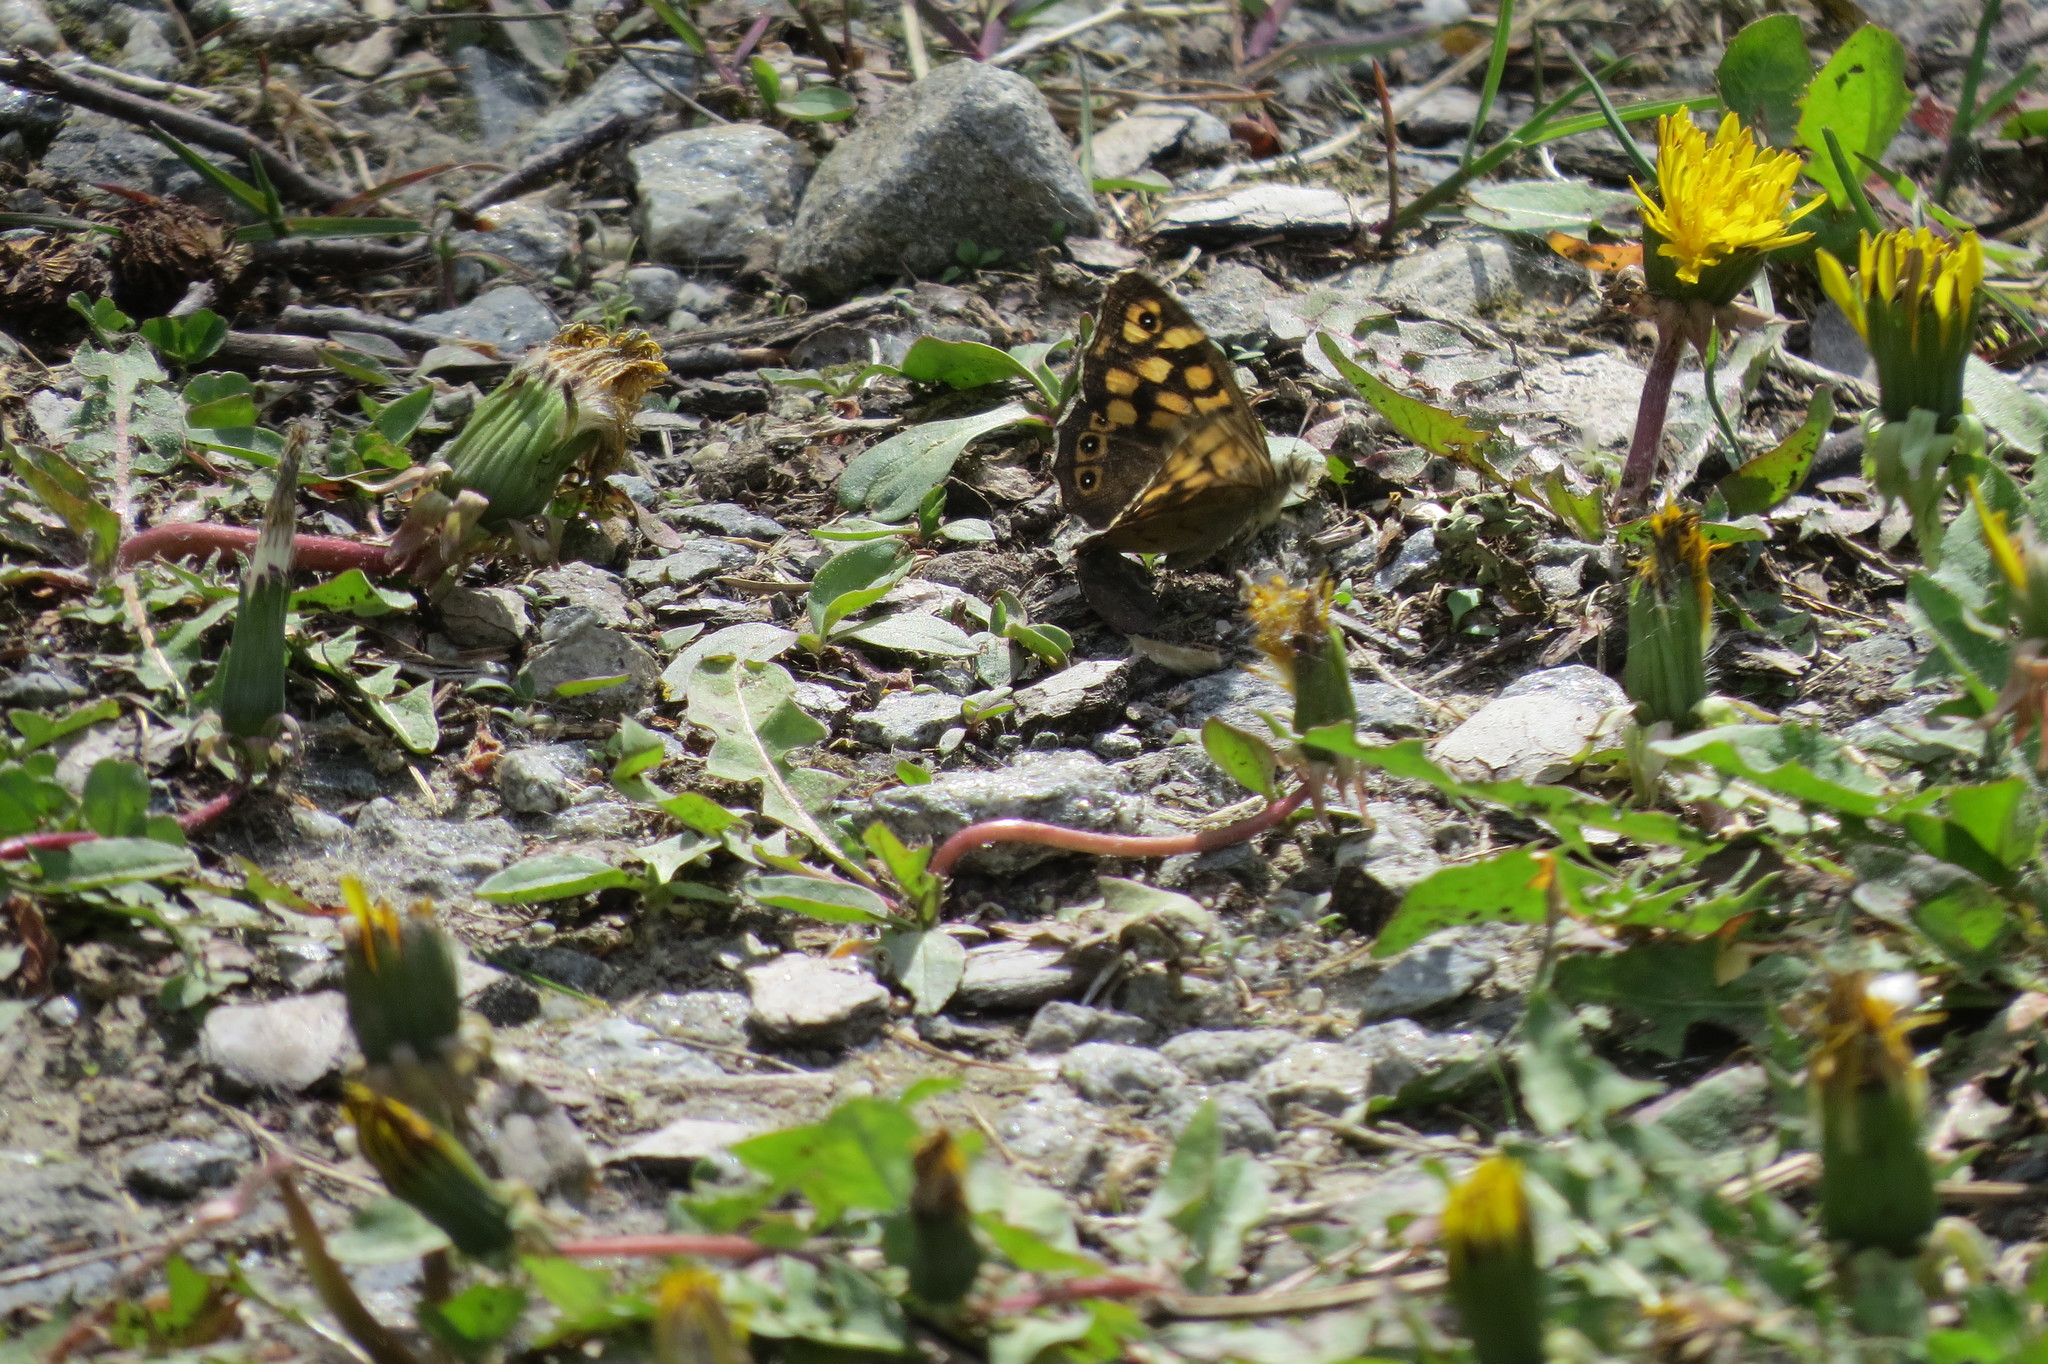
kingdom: Animalia
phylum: Arthropoda
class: Insecta
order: Lepidoptera
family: Nymphalidae
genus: Pararge
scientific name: Pararge aegeria
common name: Speckled wood
